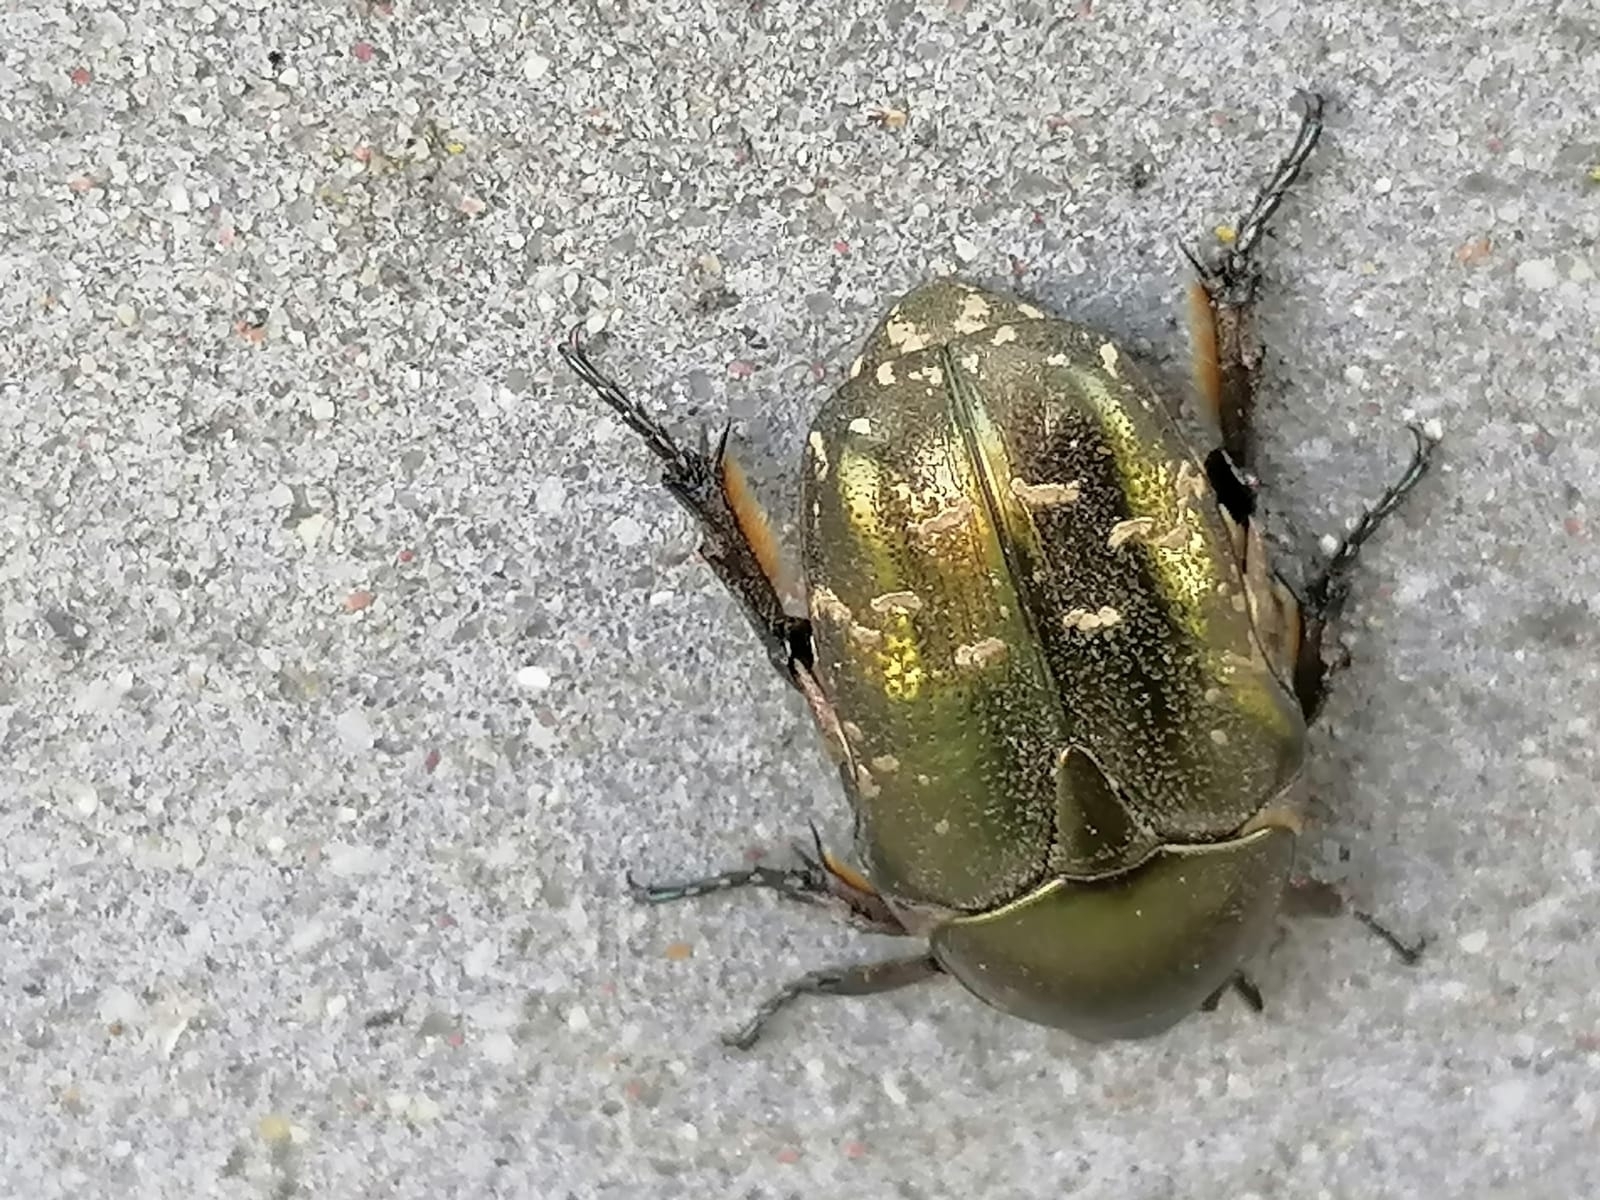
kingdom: Animalia
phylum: Arthropoda
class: Insecta
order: Coleoptera
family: Scarabaeidae
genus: Protaetia
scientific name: Protaetia cuprea
